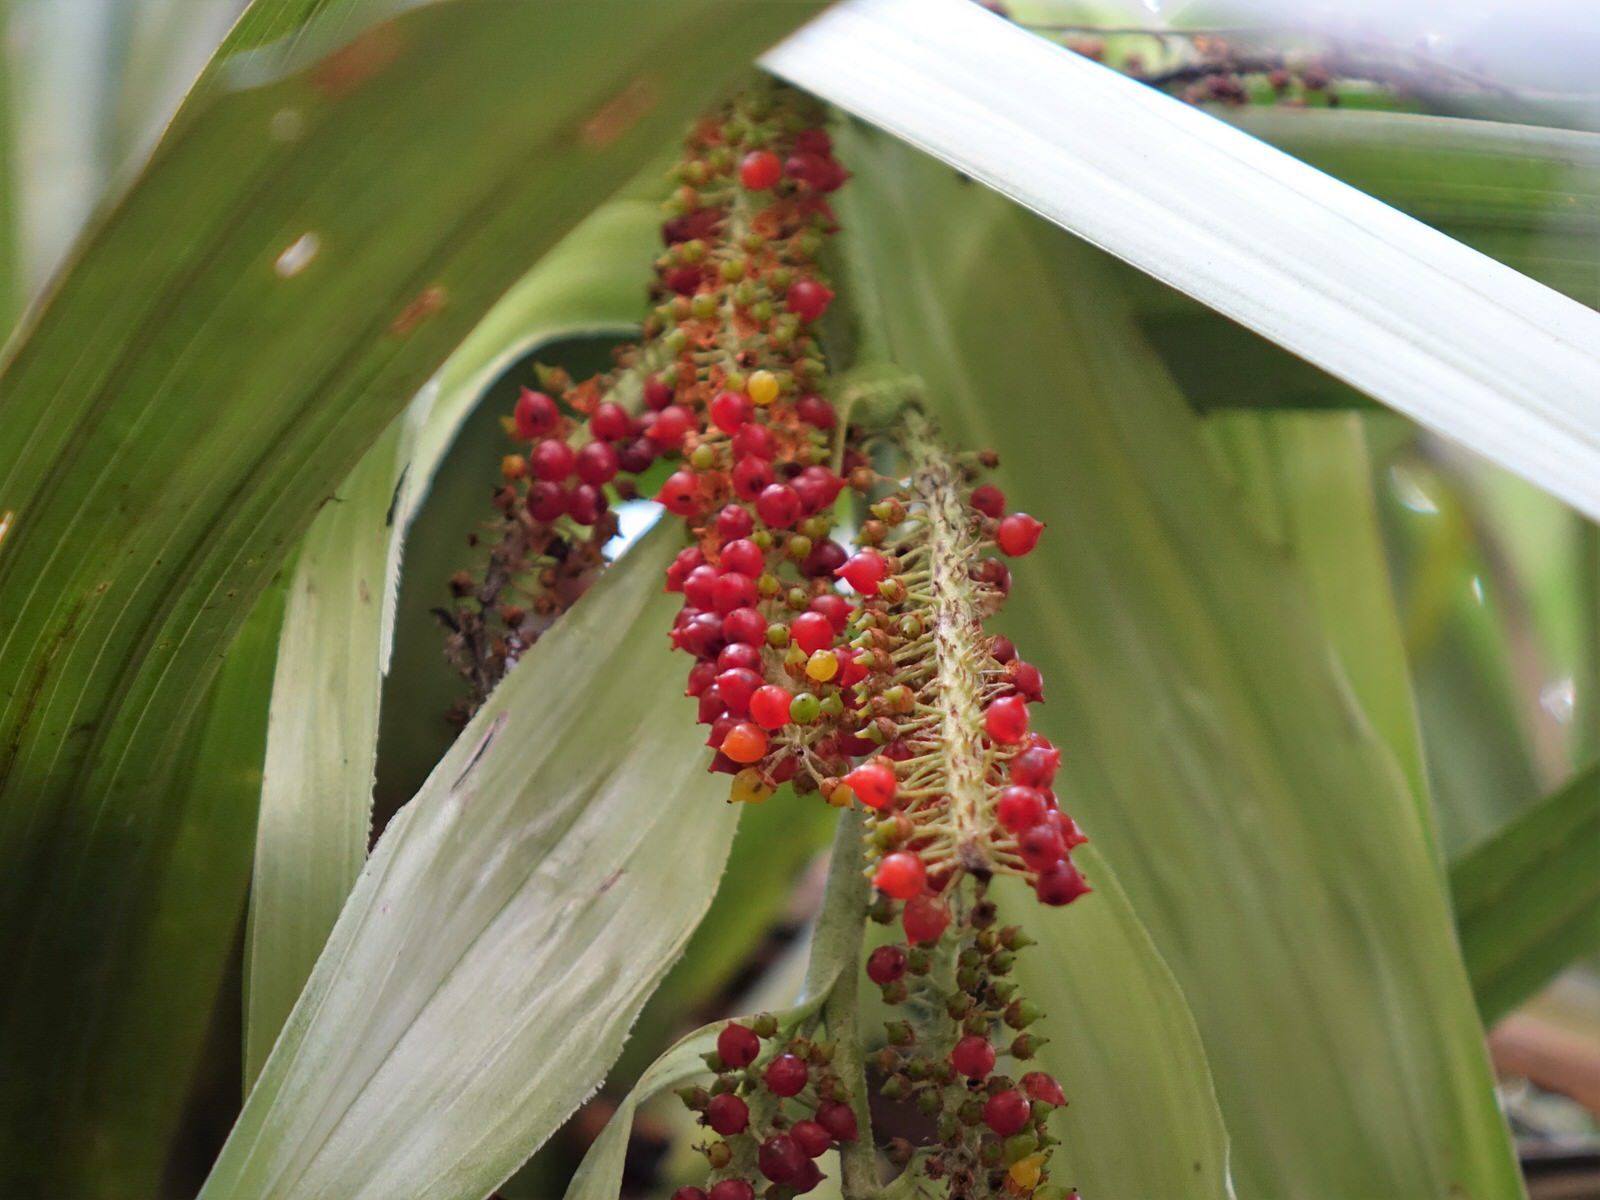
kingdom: Plantae
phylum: Tracheophyta
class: Liliopsida
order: Asparagales
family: Asteliaceae
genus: Astelia
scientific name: Astelia hastata
